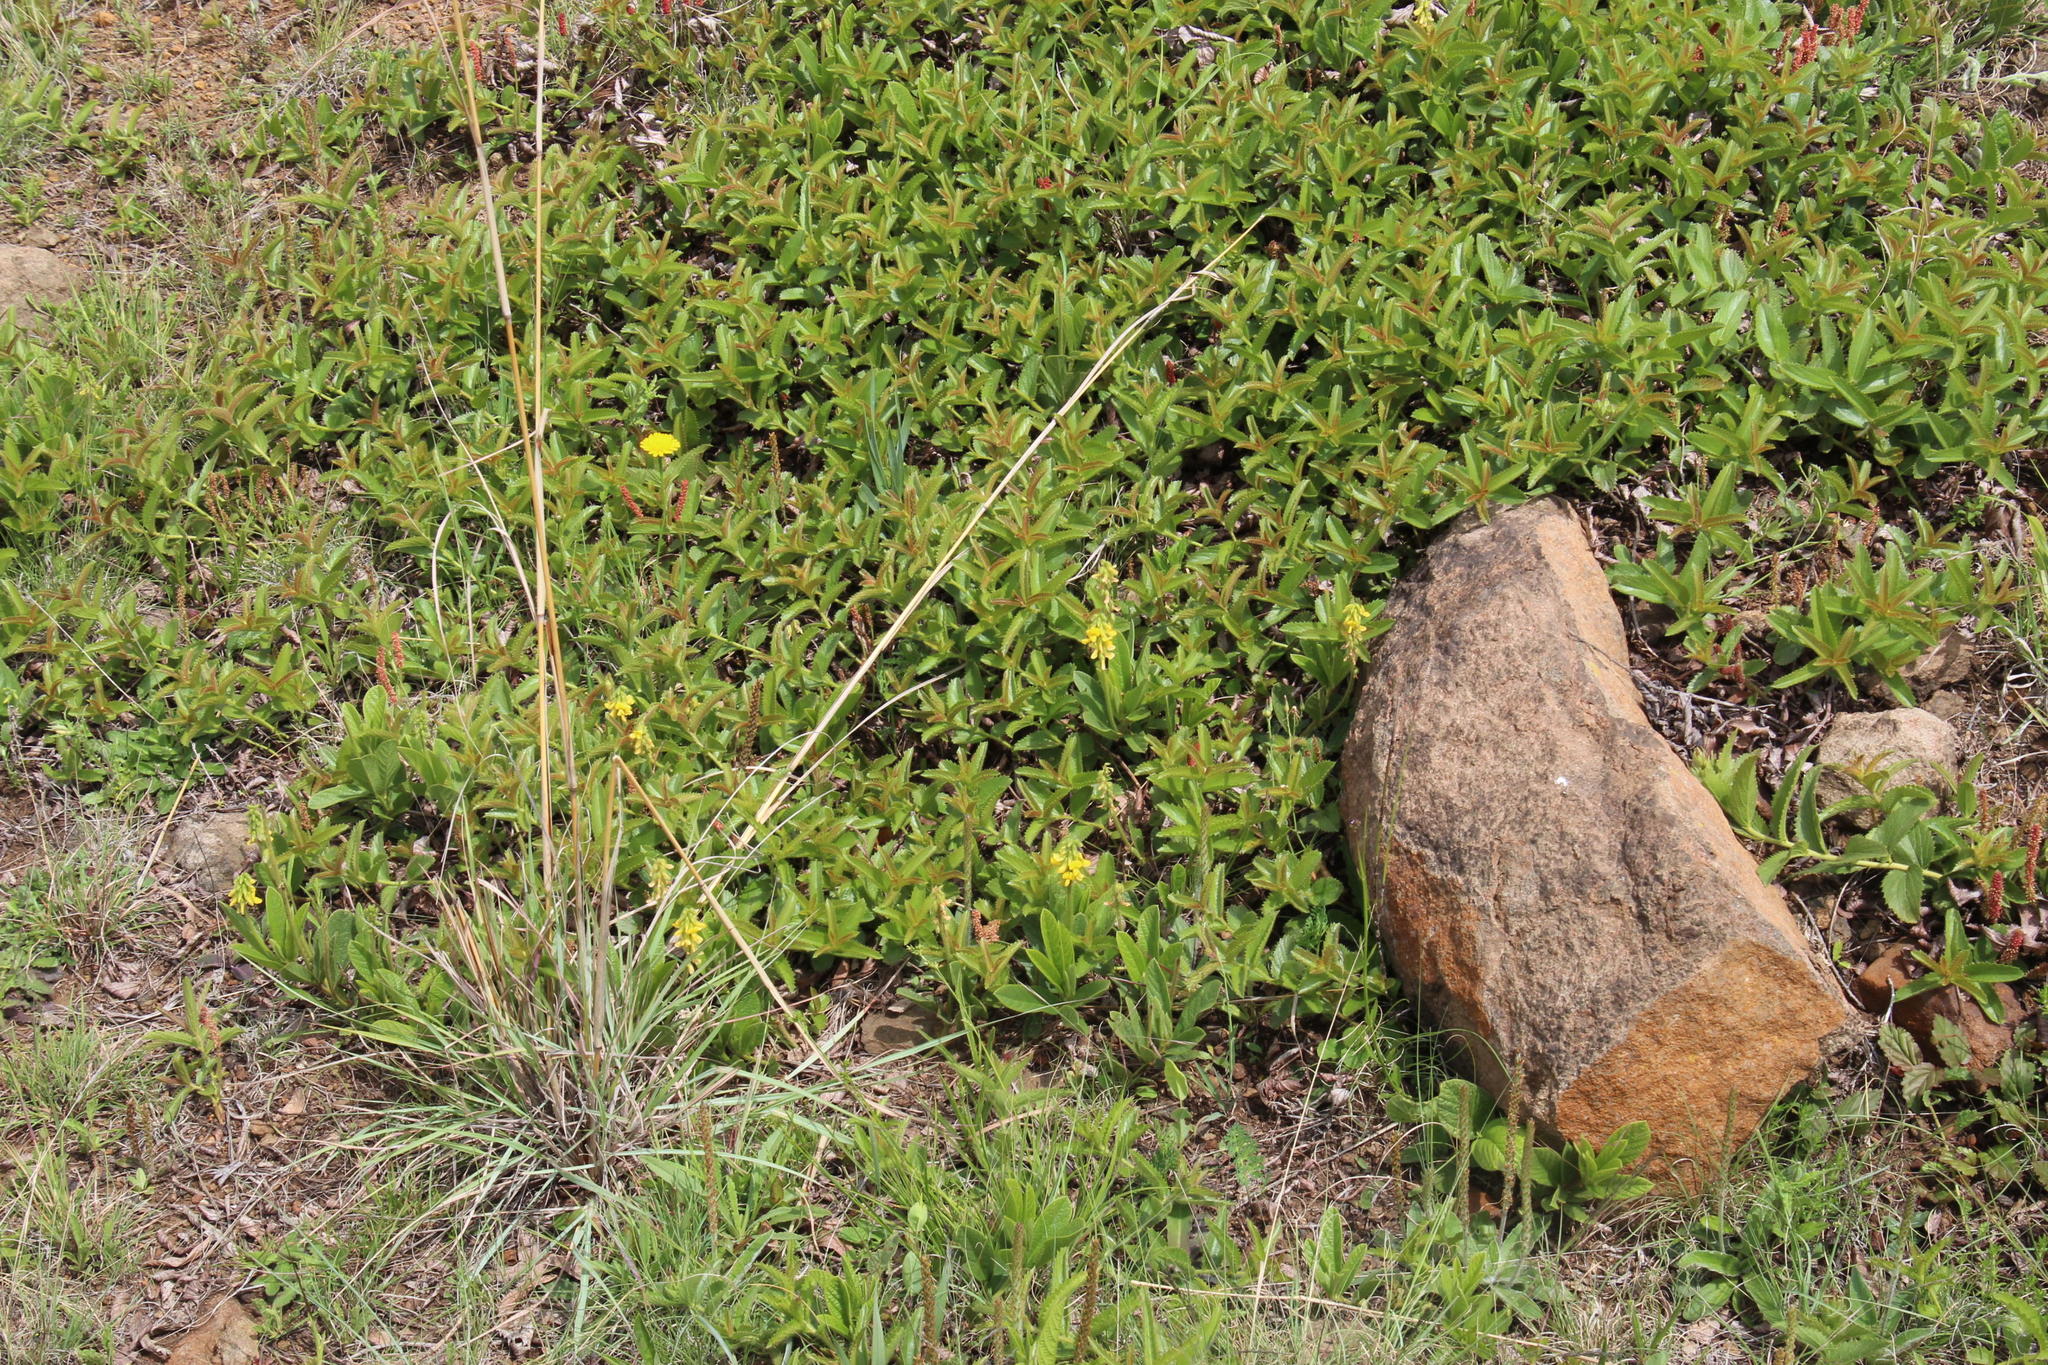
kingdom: Plantae
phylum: Tracheophyta
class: Magnoliopsida
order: Fabales
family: Fabaceae
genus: Eriosema
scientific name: Eriosema cordatum
